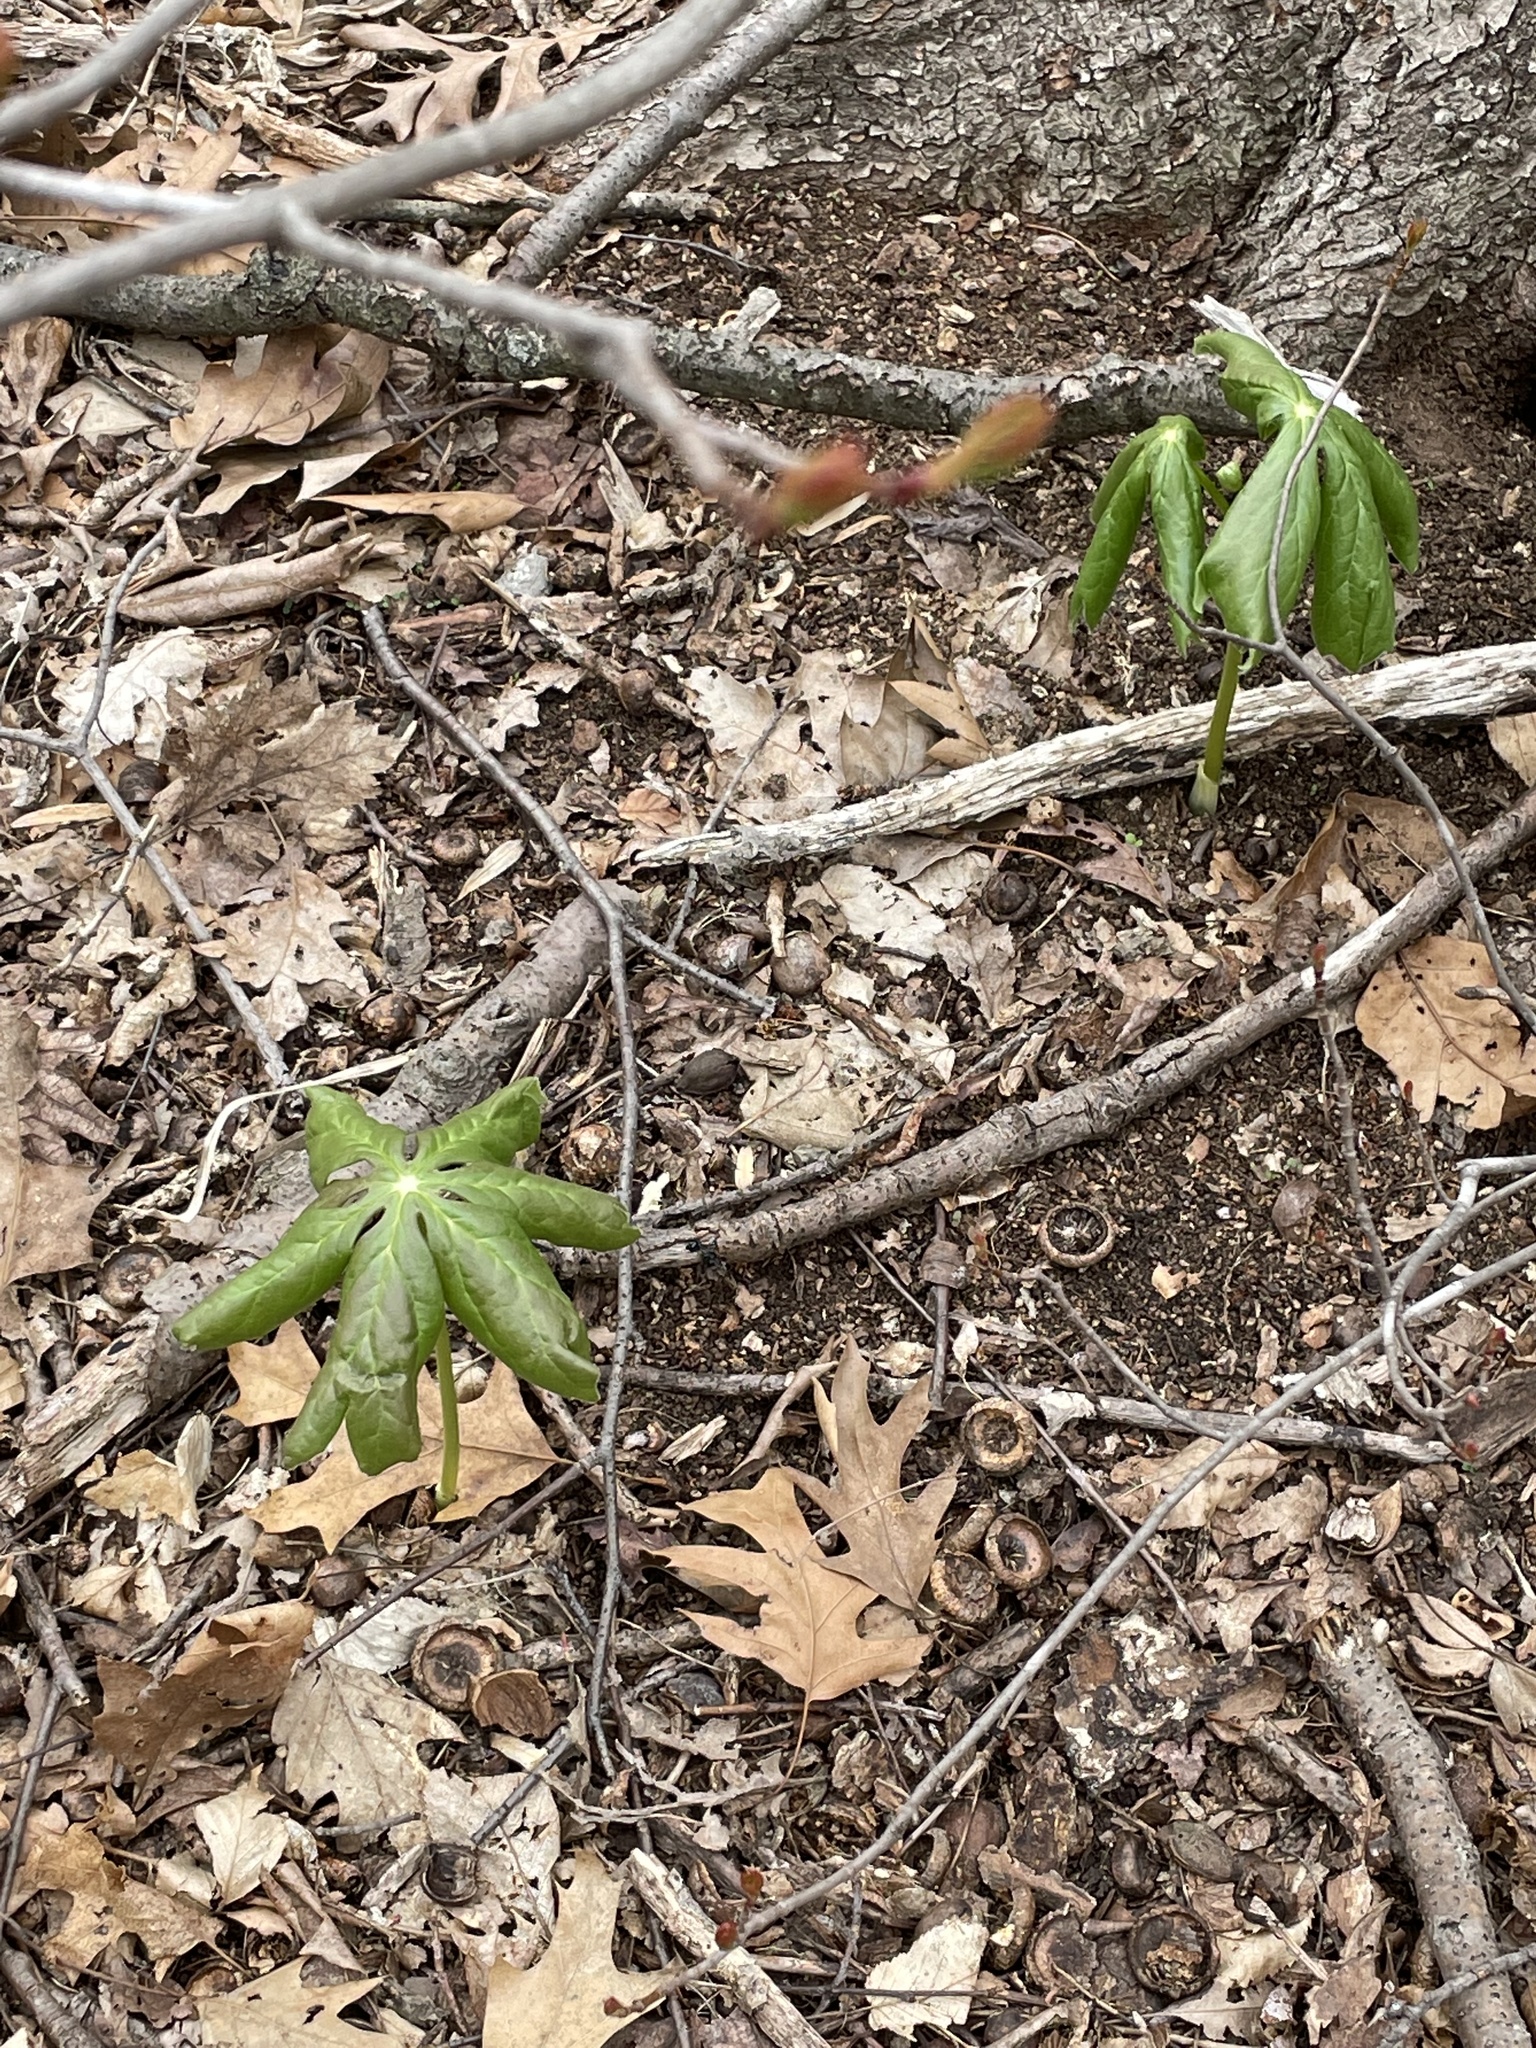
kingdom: Plantae
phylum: Tracheophyta
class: Magnoliopsida
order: Ranunculales
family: Berberidaceae
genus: Podophyllum
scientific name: Podophyllum peltatum
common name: Wild mandrake
